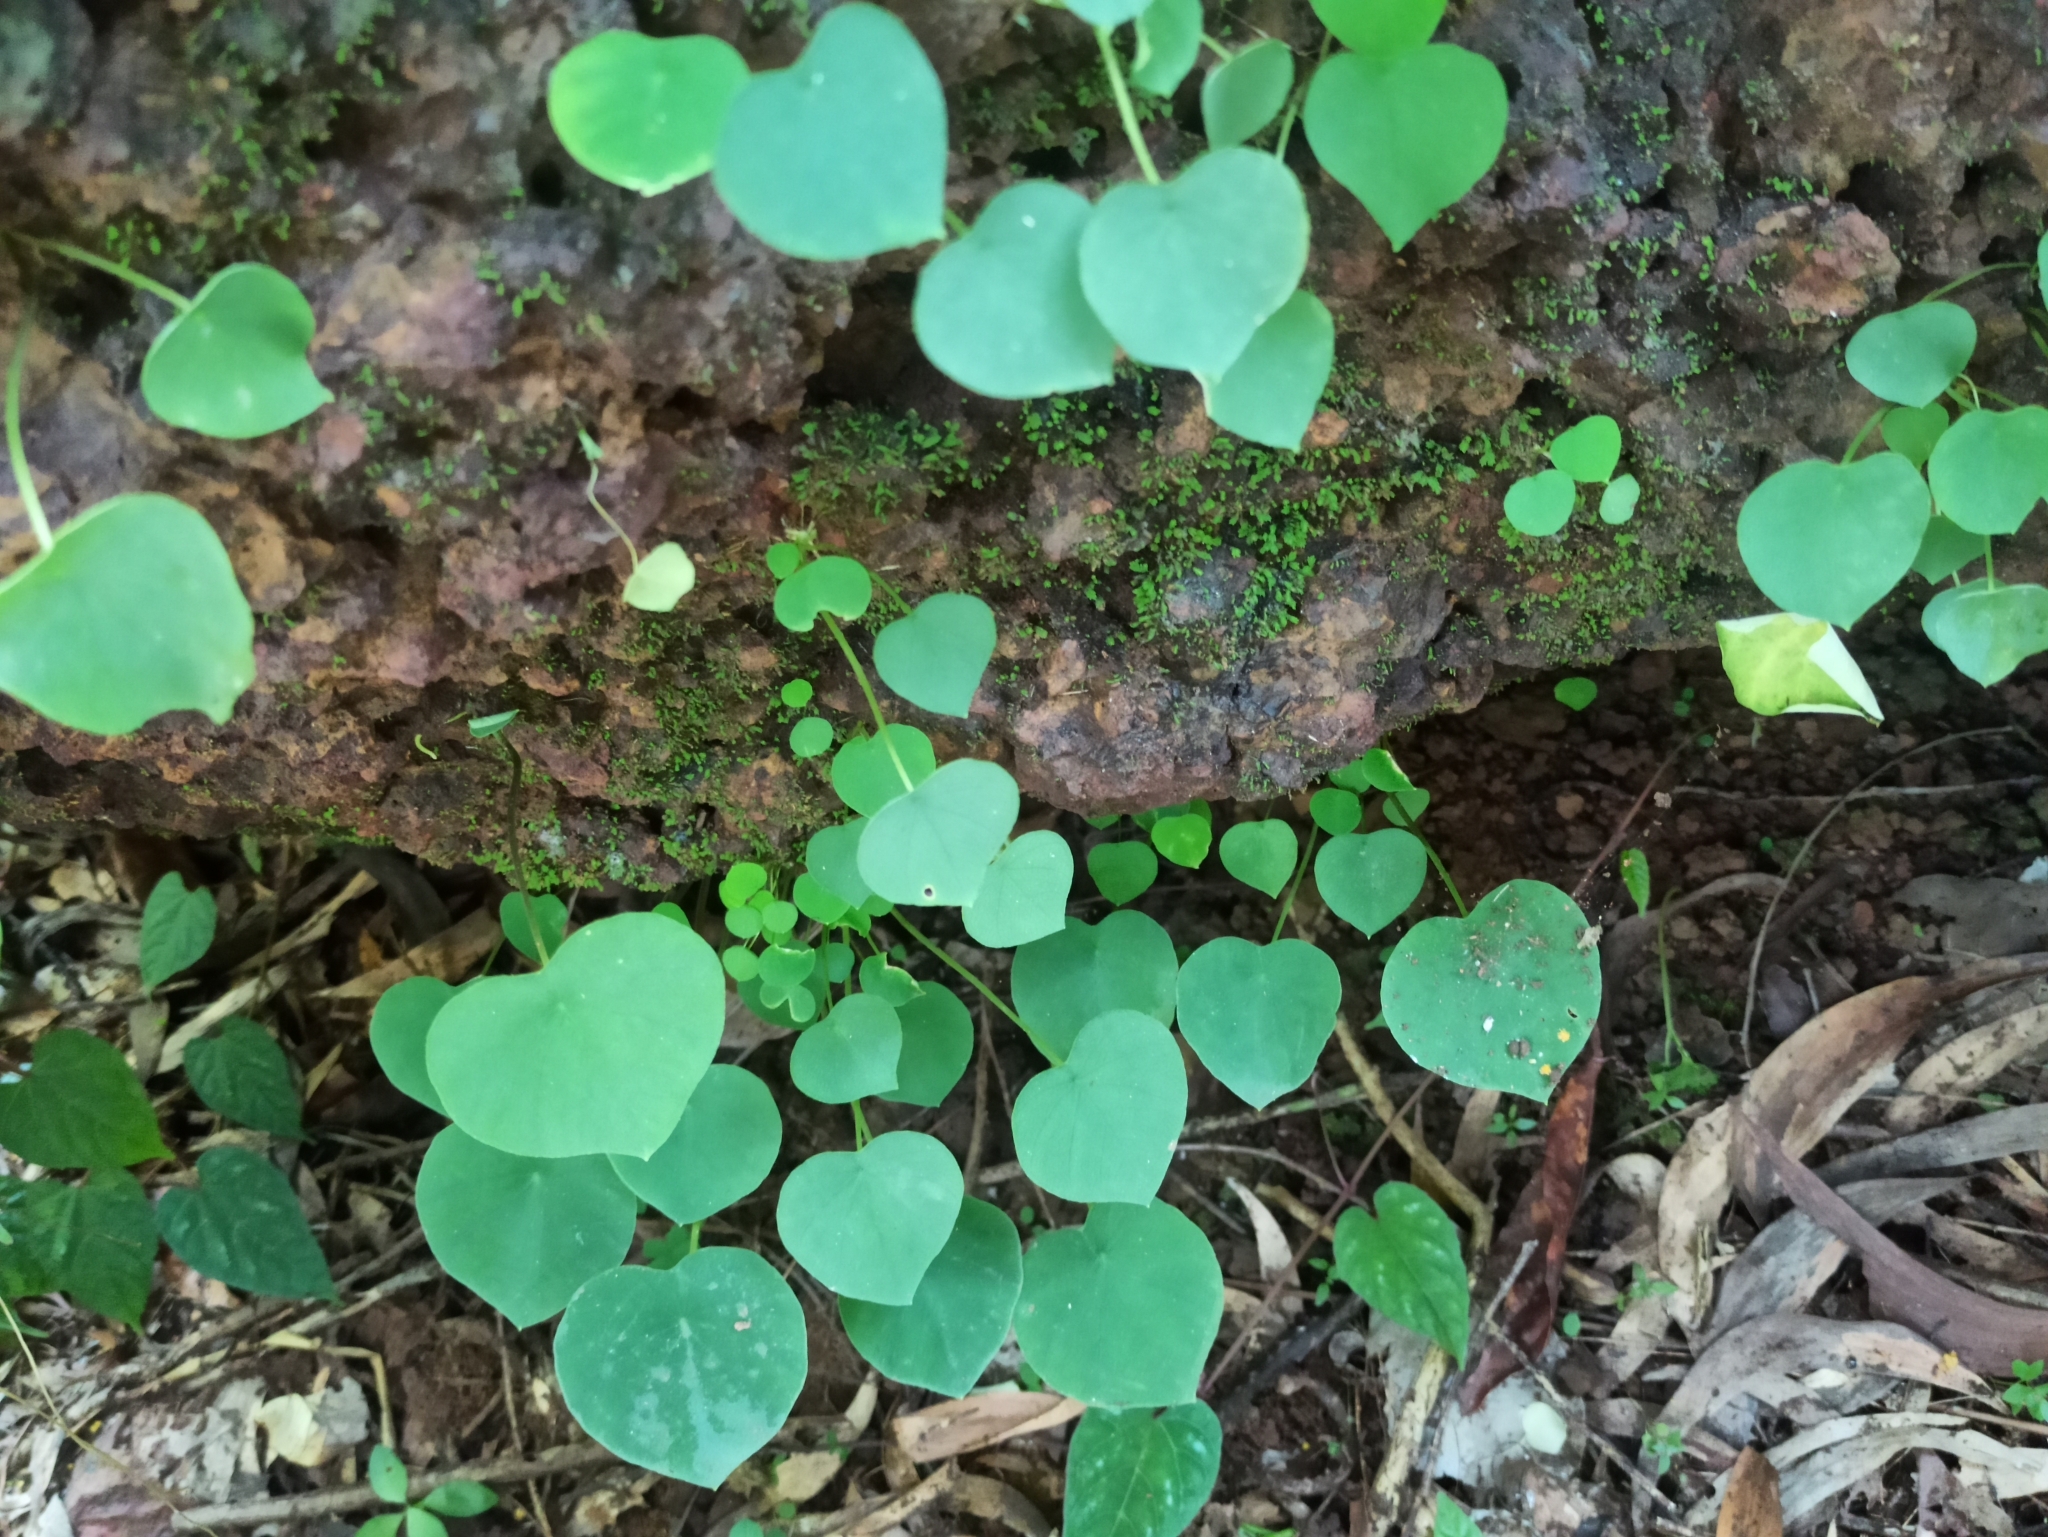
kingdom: Plantae
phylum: Tracheophyta
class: Liliopsida
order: Alismatales
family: Araceae
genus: Ariopsis
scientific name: Ariopsis peltata
